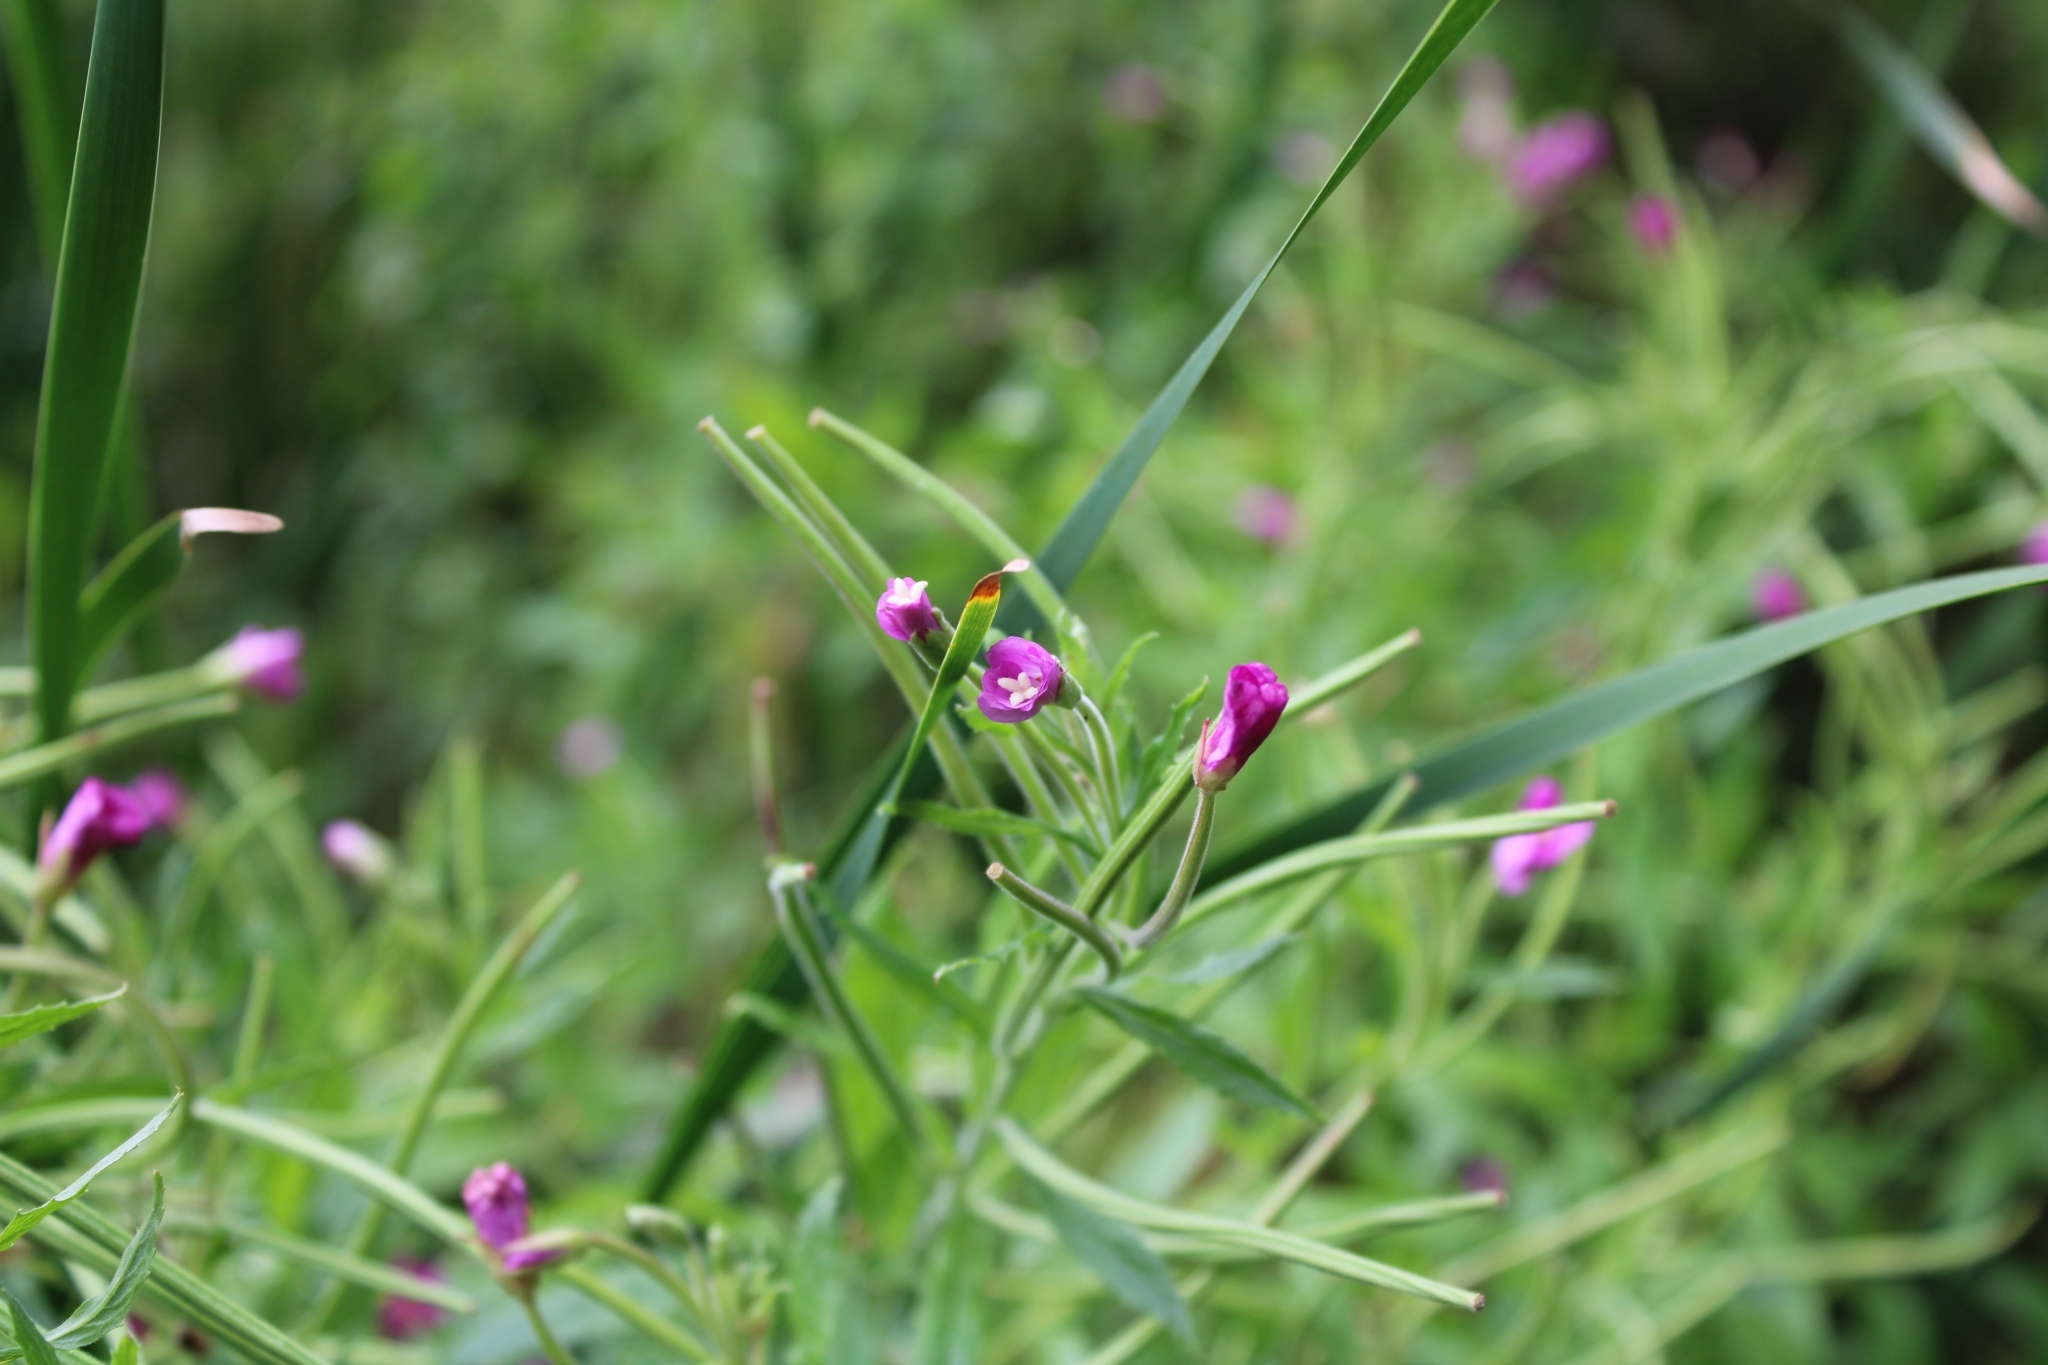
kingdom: Plantae
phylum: Tracheophyta
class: Magnoliopsida
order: Myrtales
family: Onagraceae
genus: Epilobium
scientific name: Epilobium hirsutum
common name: Great willowherb
